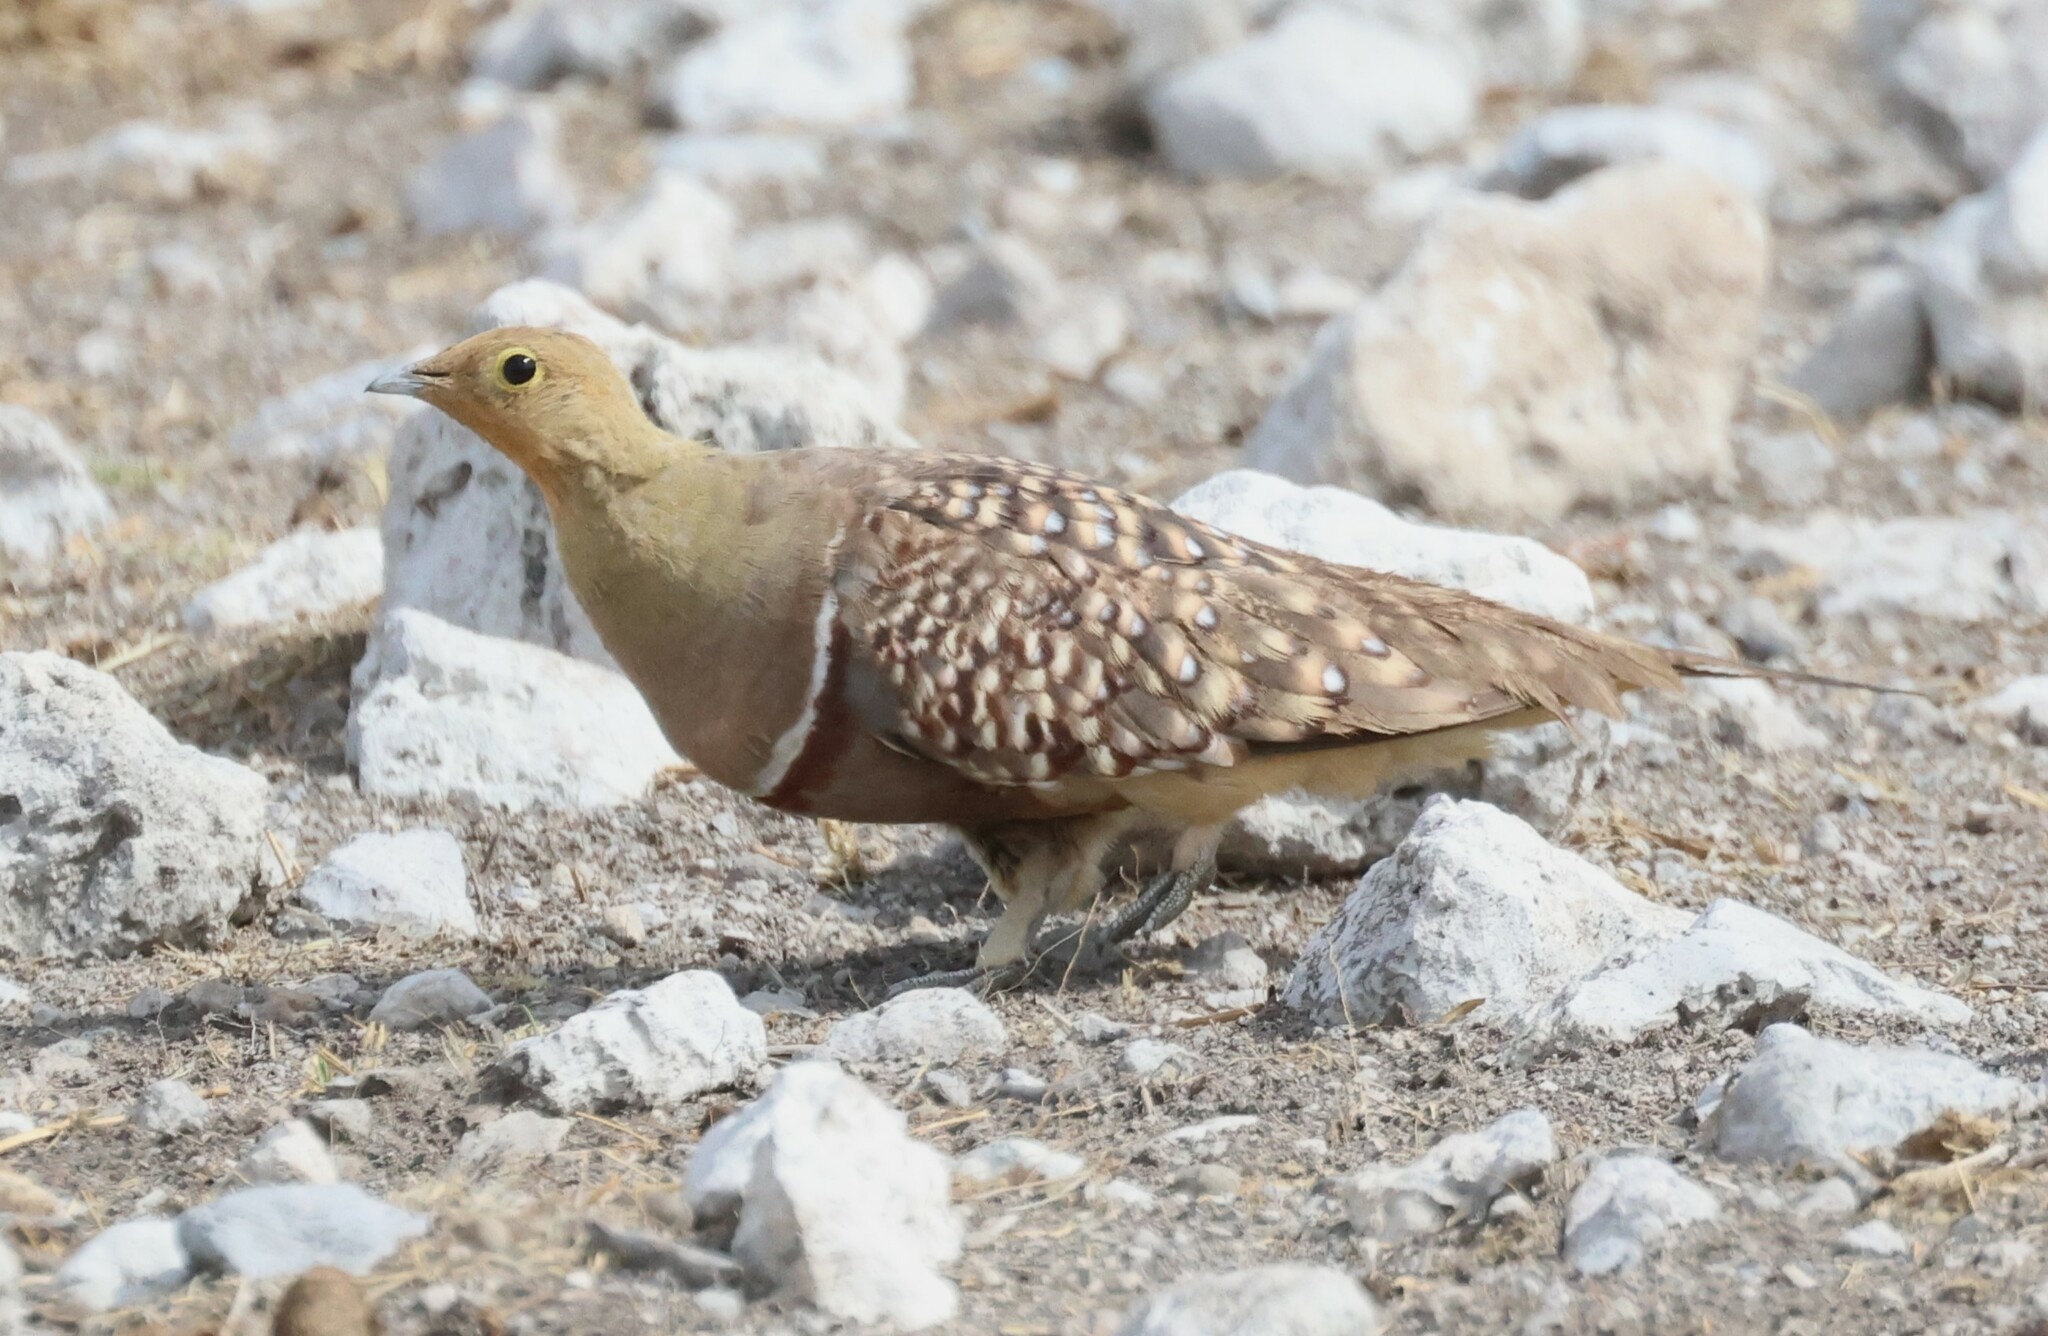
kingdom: Animalia
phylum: Chordata
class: Aves
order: Pteroclidiformes
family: Pteroclididae
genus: Pterocles
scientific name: Pterocles namaqua
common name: Namaqua sandgrouse
